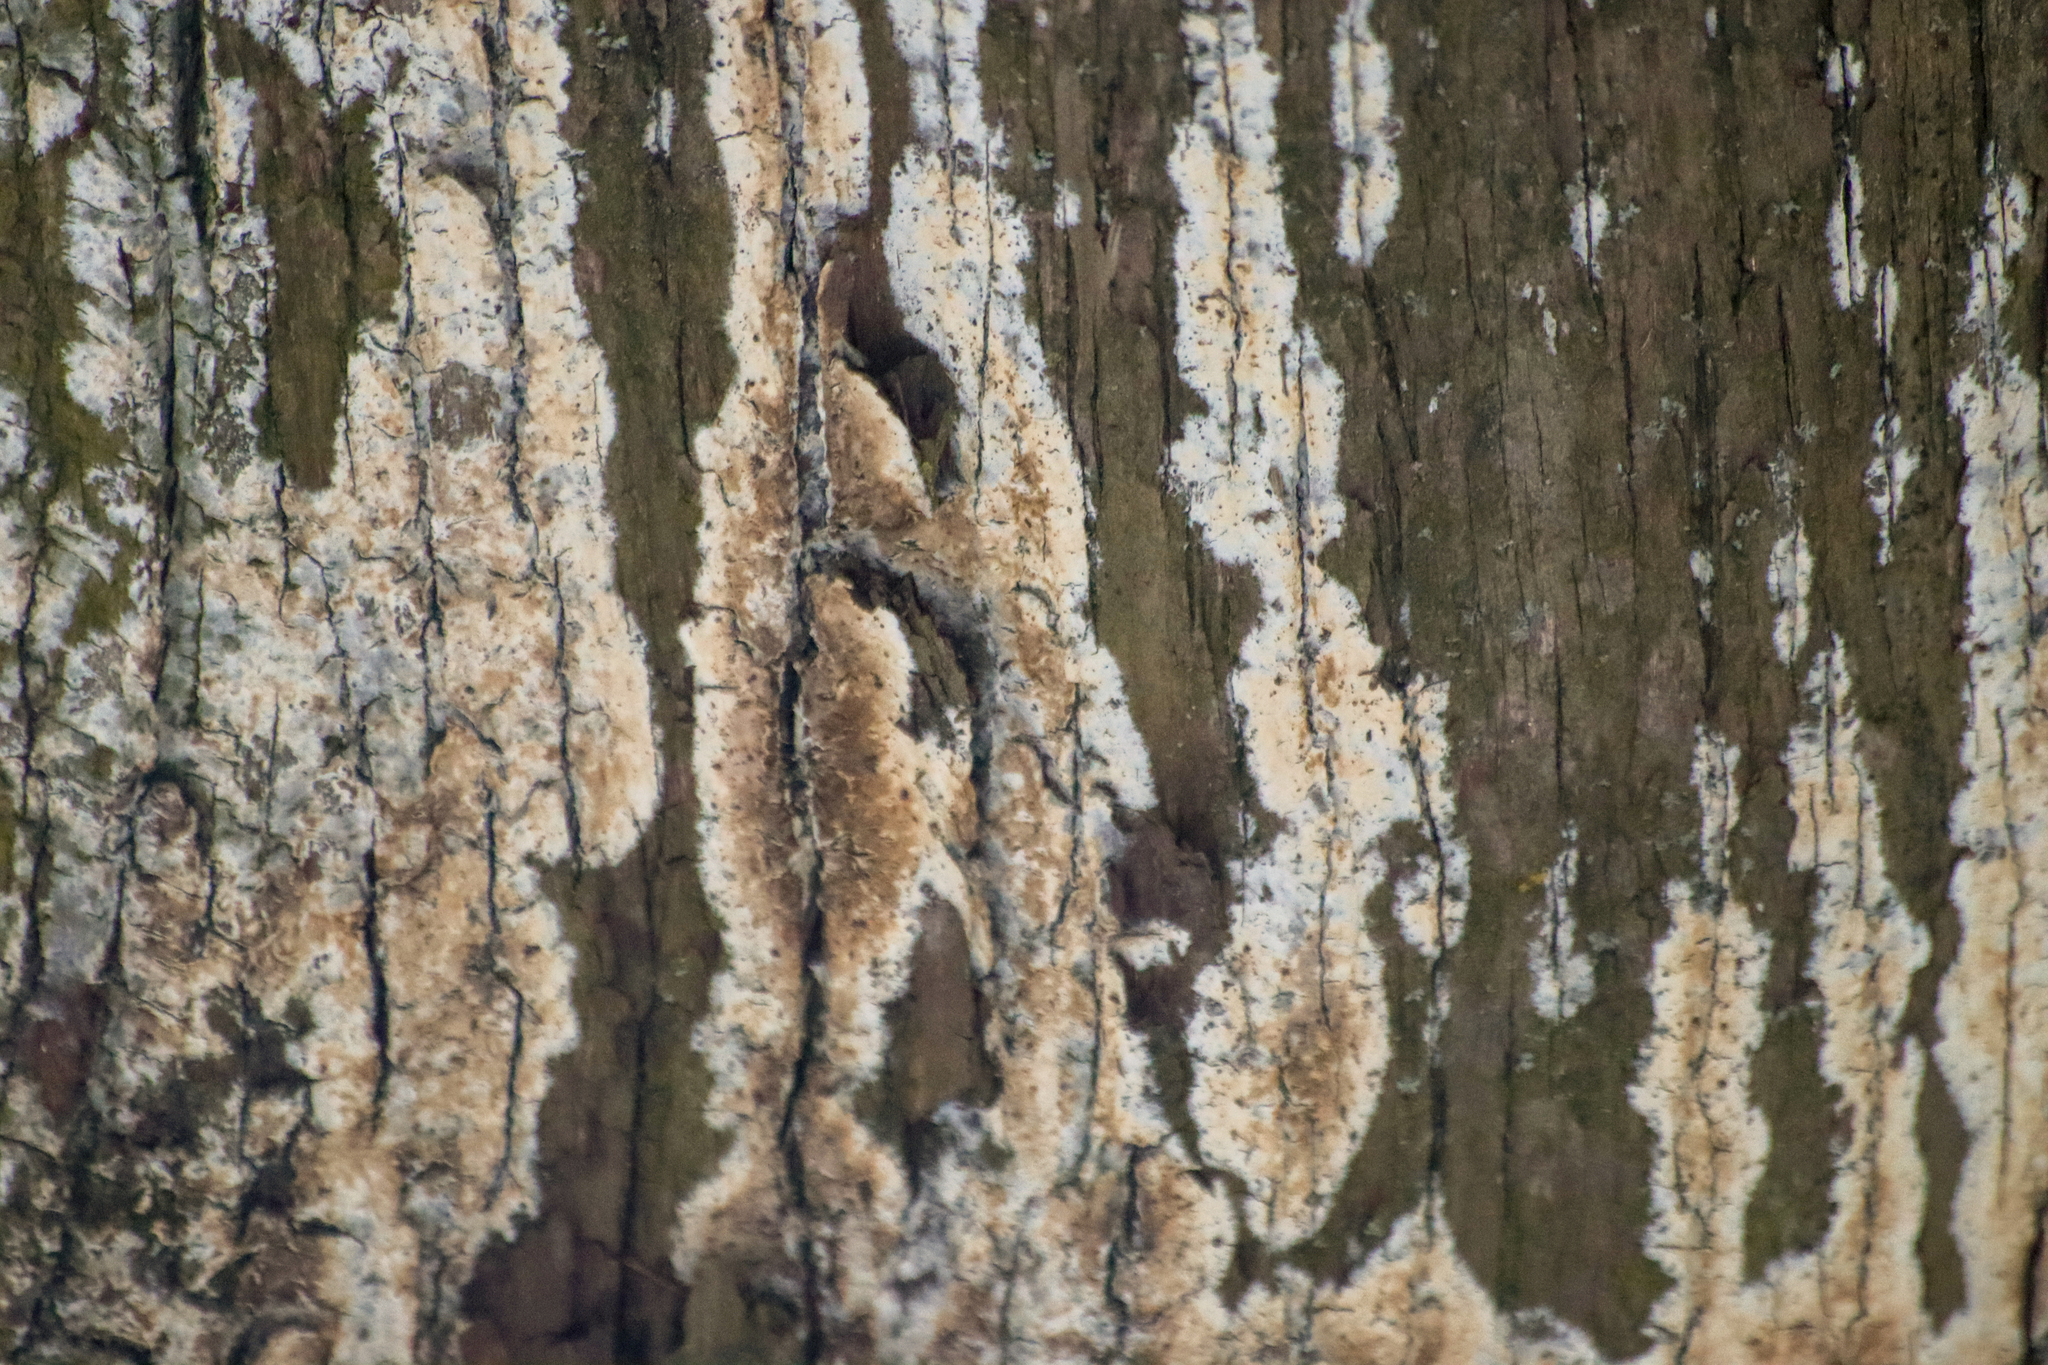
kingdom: Fungi
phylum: Basidiomycota
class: Agaricomycetes
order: Russulales
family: Peniophoraceae
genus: Peniophora
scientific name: Peniophora albobadia
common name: Giraffe spots
